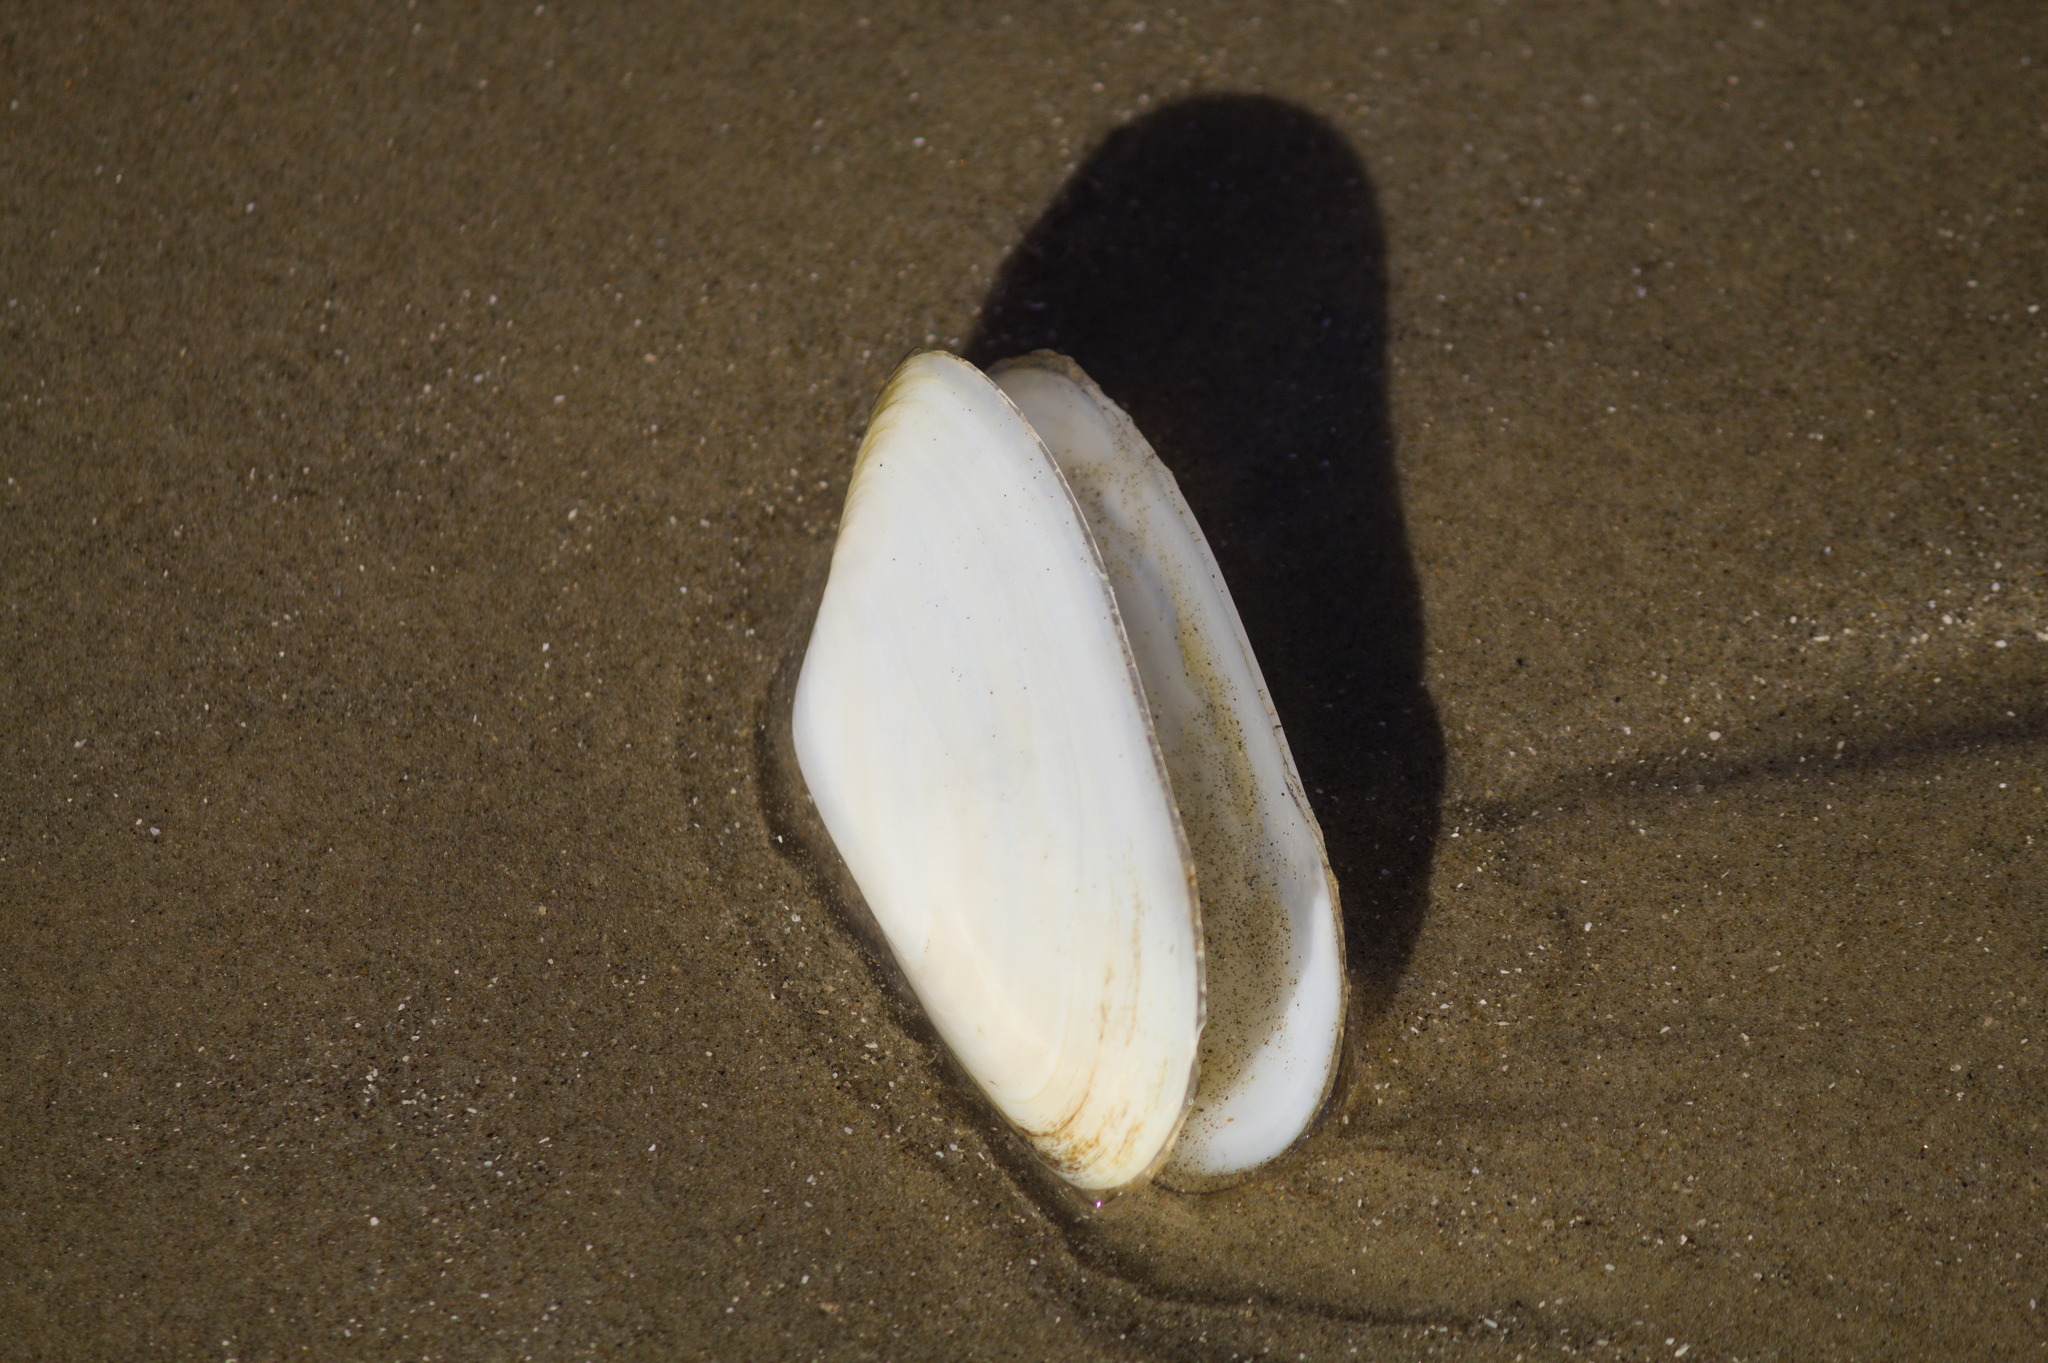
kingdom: Animalia
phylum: Mollusca
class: Bivalvia
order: Venerida
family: Mesodesmatidae
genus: Amarilladesma
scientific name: Amarilladesma mactroides
